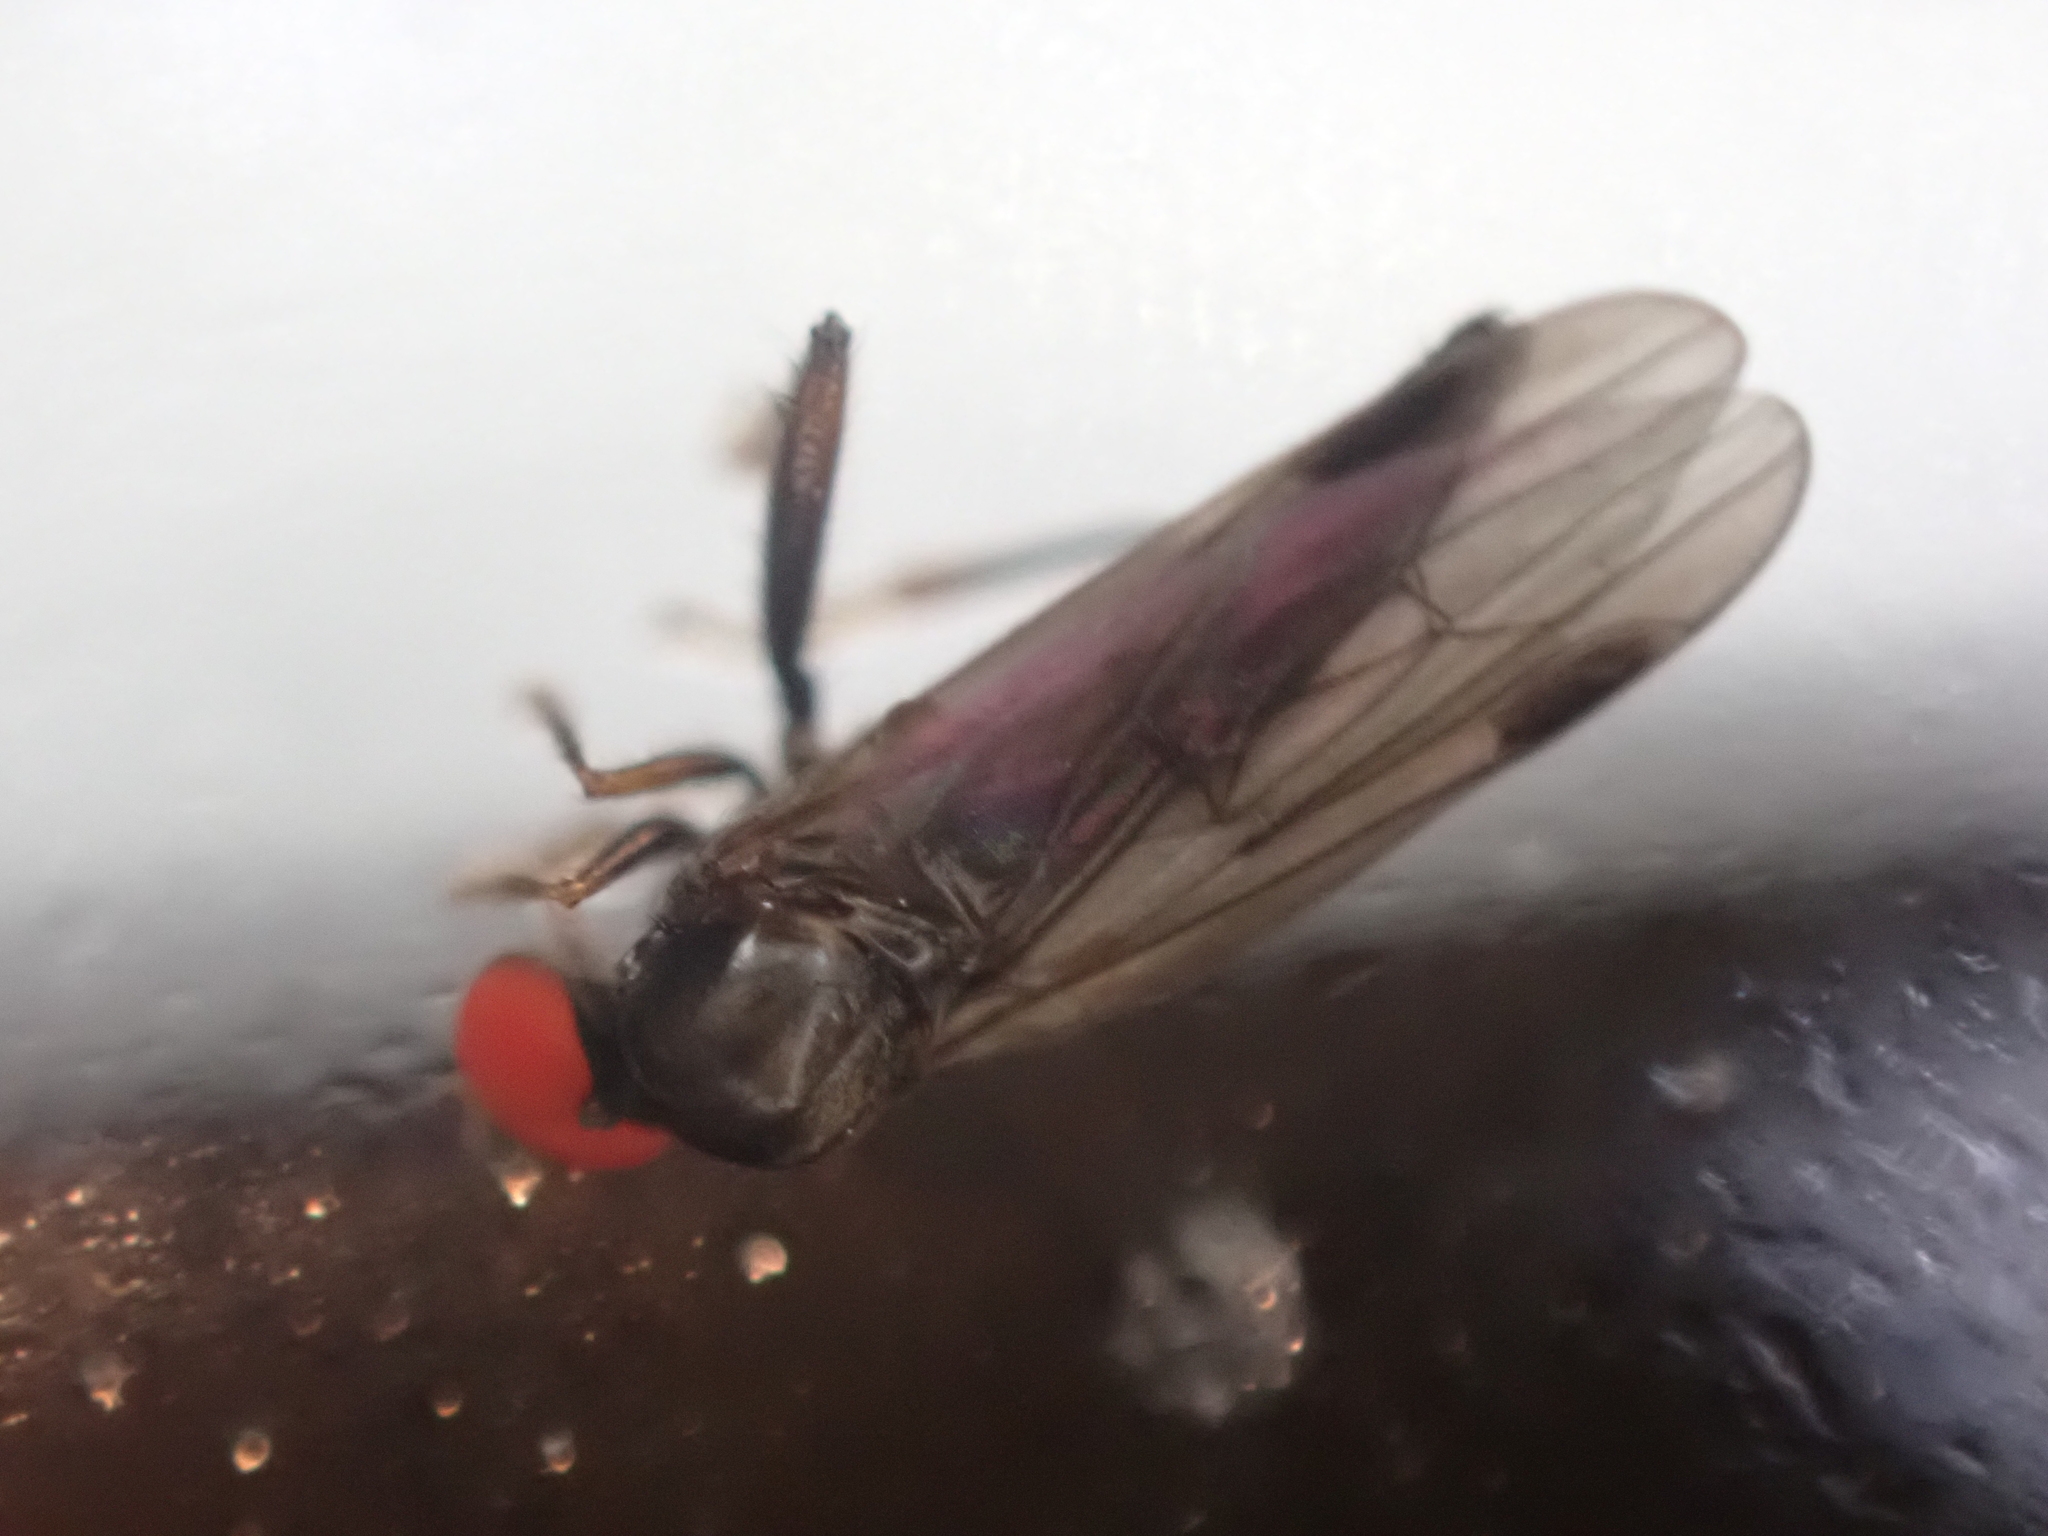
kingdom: Animalia
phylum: Arthropoda
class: Insecta
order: Diptera
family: Hybotidae
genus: Syneches
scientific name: Syneches thoracicus
